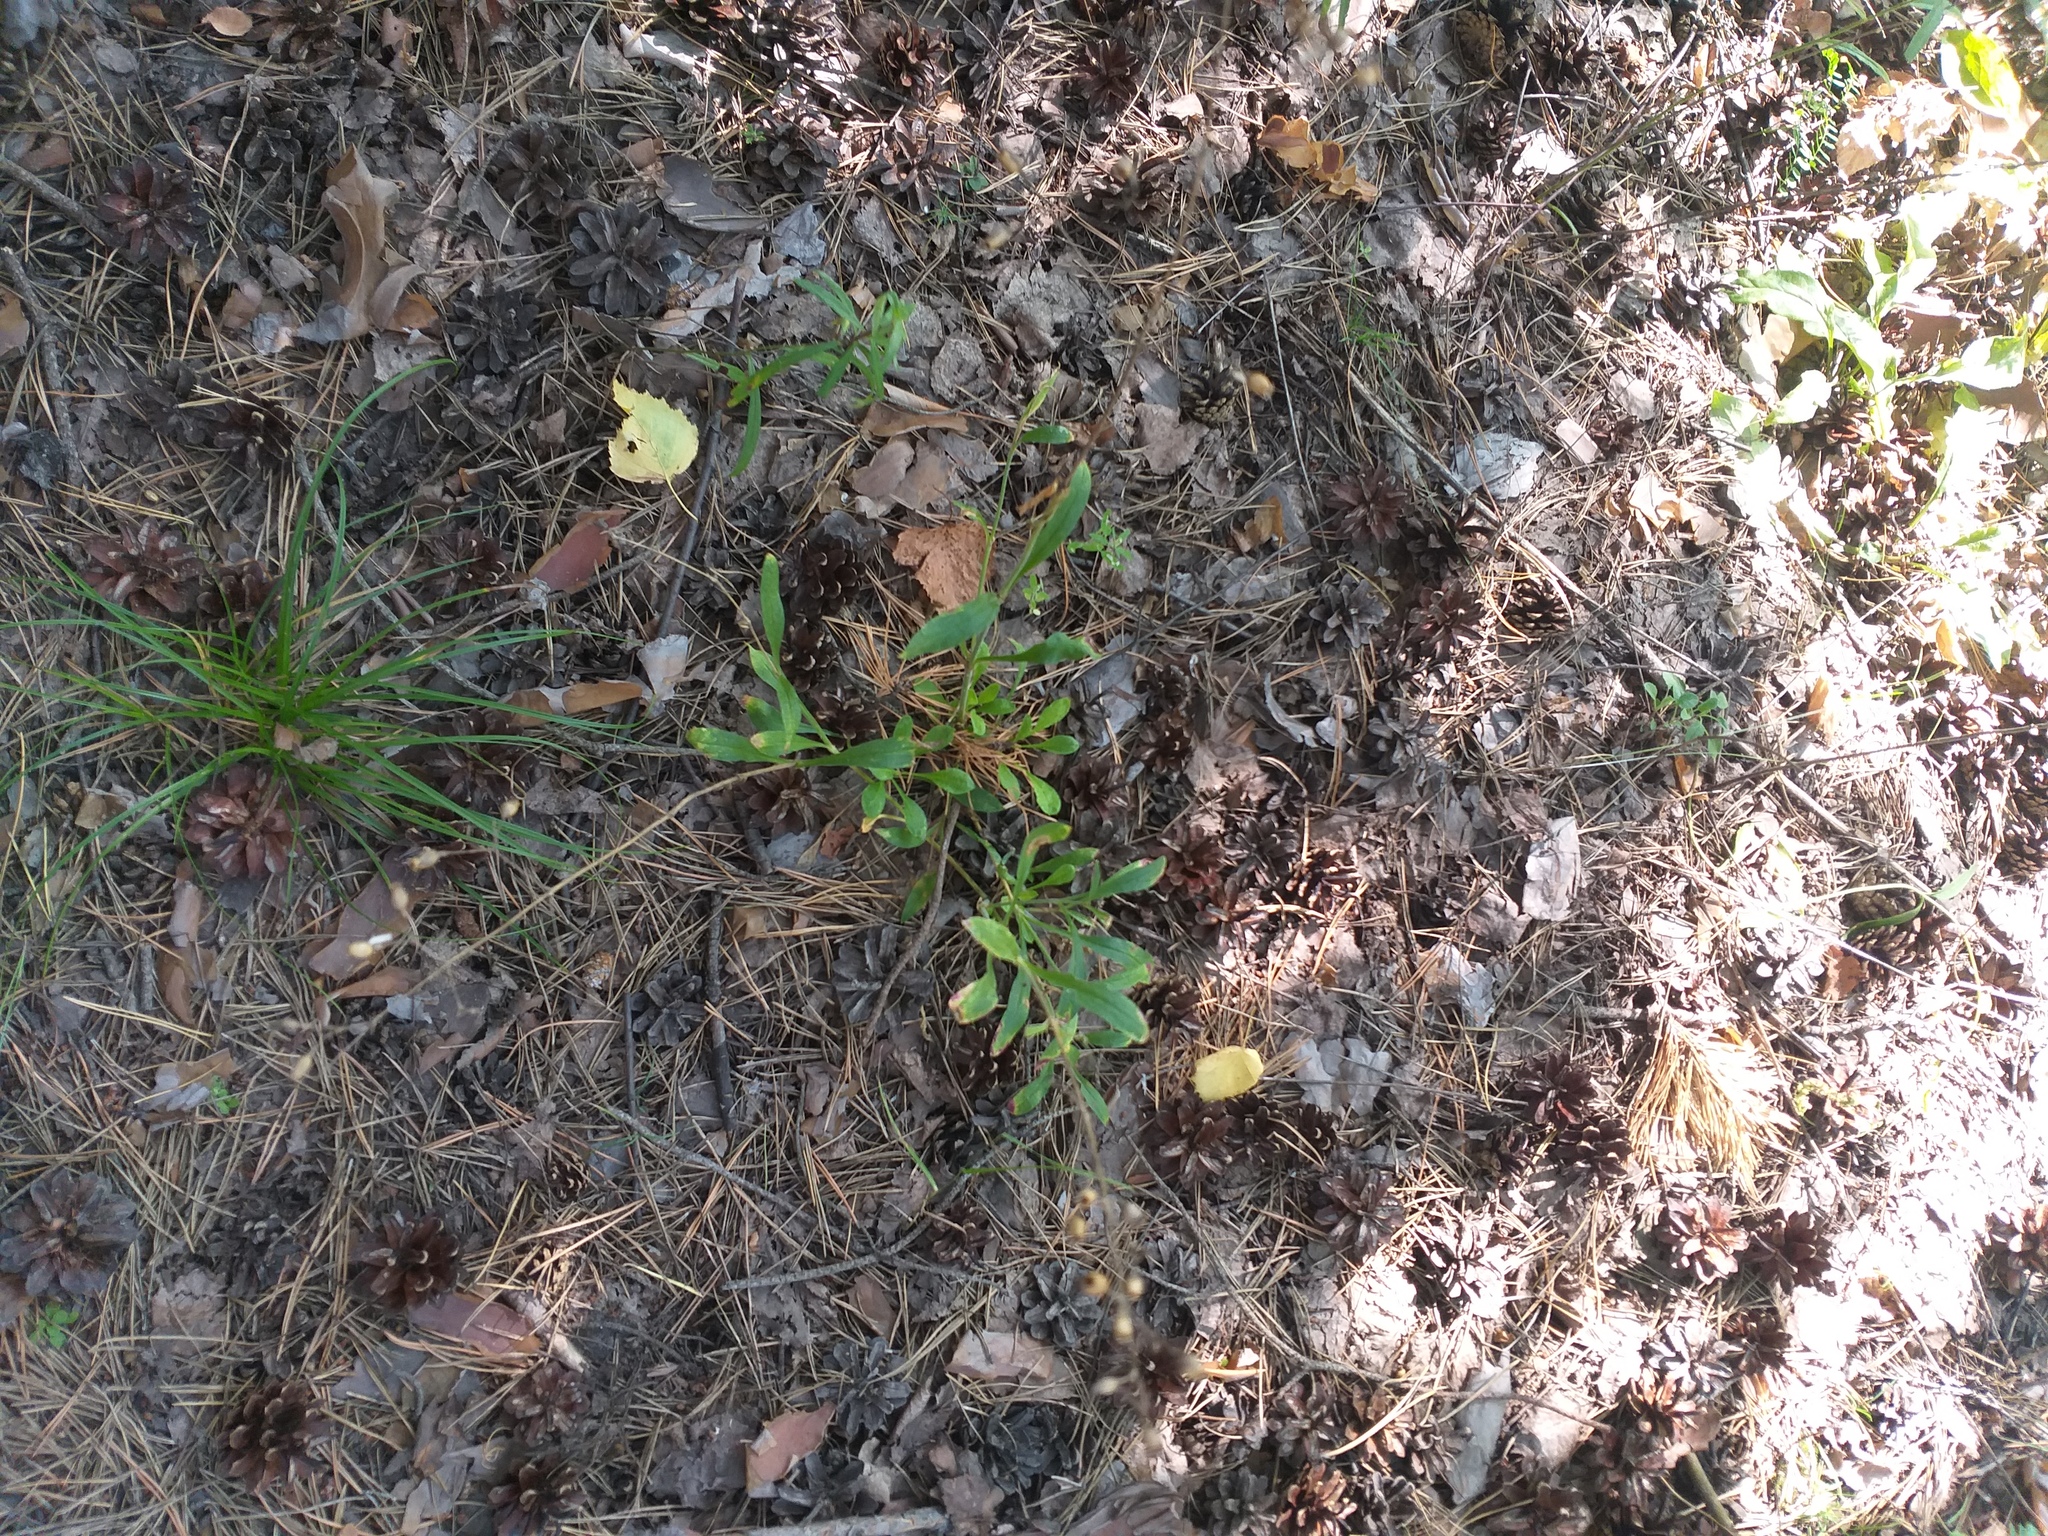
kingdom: Plantae
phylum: Tracheophyta
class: Magnoliopsida
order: Caryophyllales
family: Caryophyllaceae
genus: Silene
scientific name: Silene nutans
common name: Nottingham catchfly
